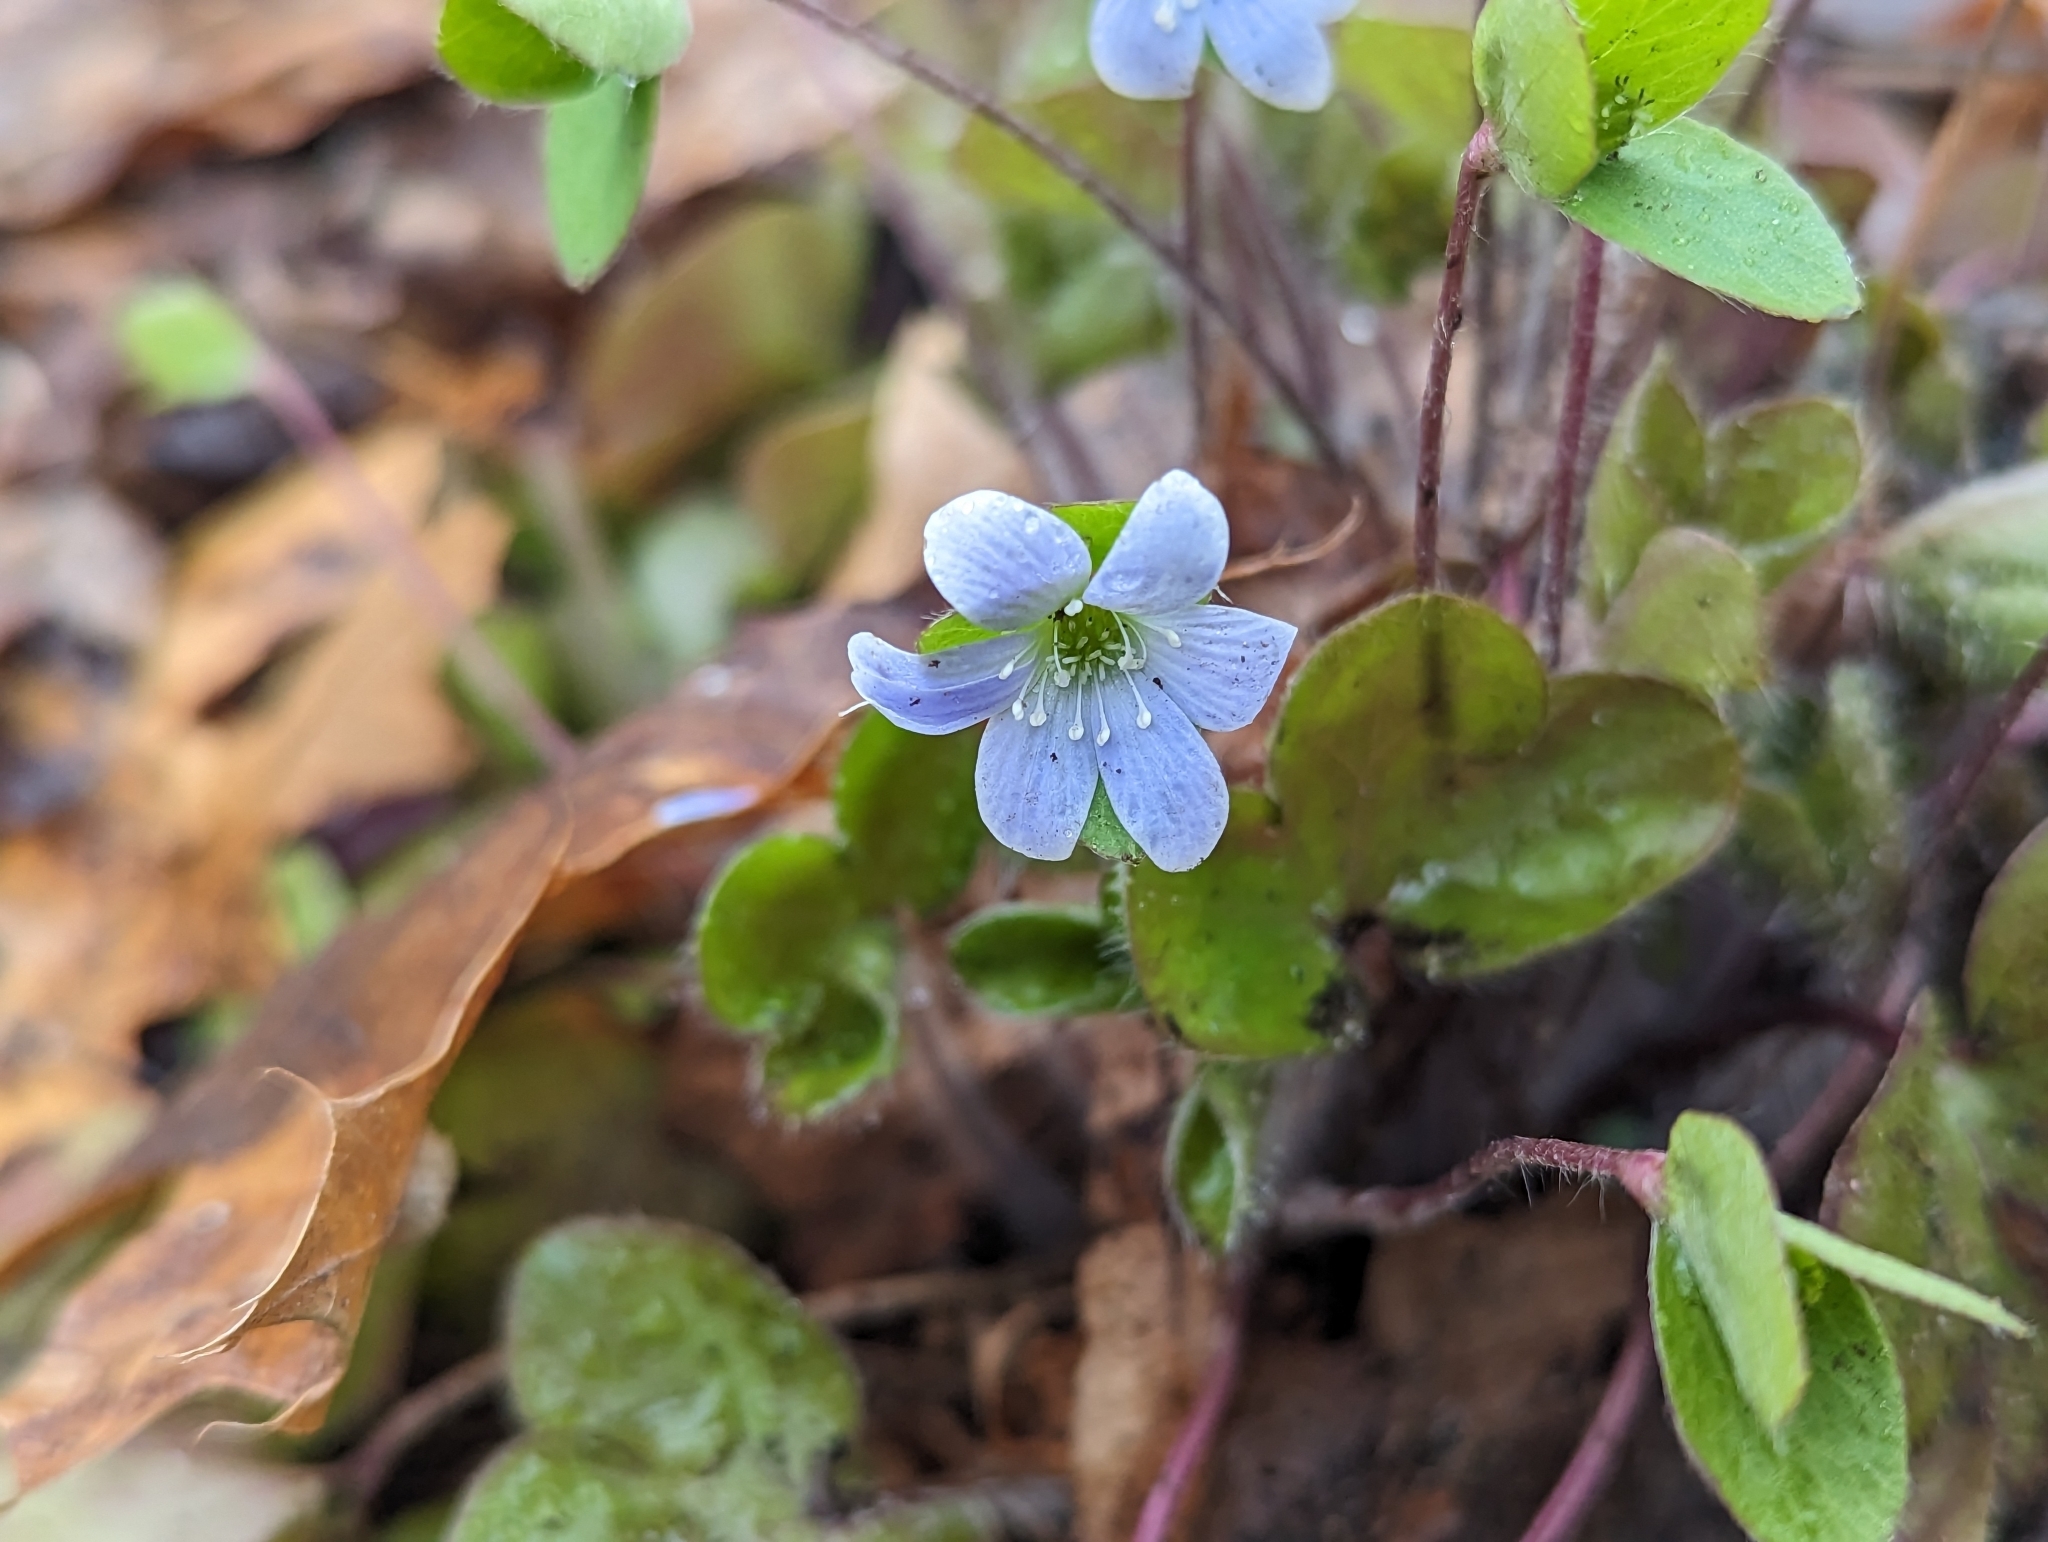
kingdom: Plantae
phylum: Tracheophyta
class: Magnoliopsida
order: Ranunculales
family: Ranunculaceae
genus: Hepatica
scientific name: Hepatica americana
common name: American hepatica
